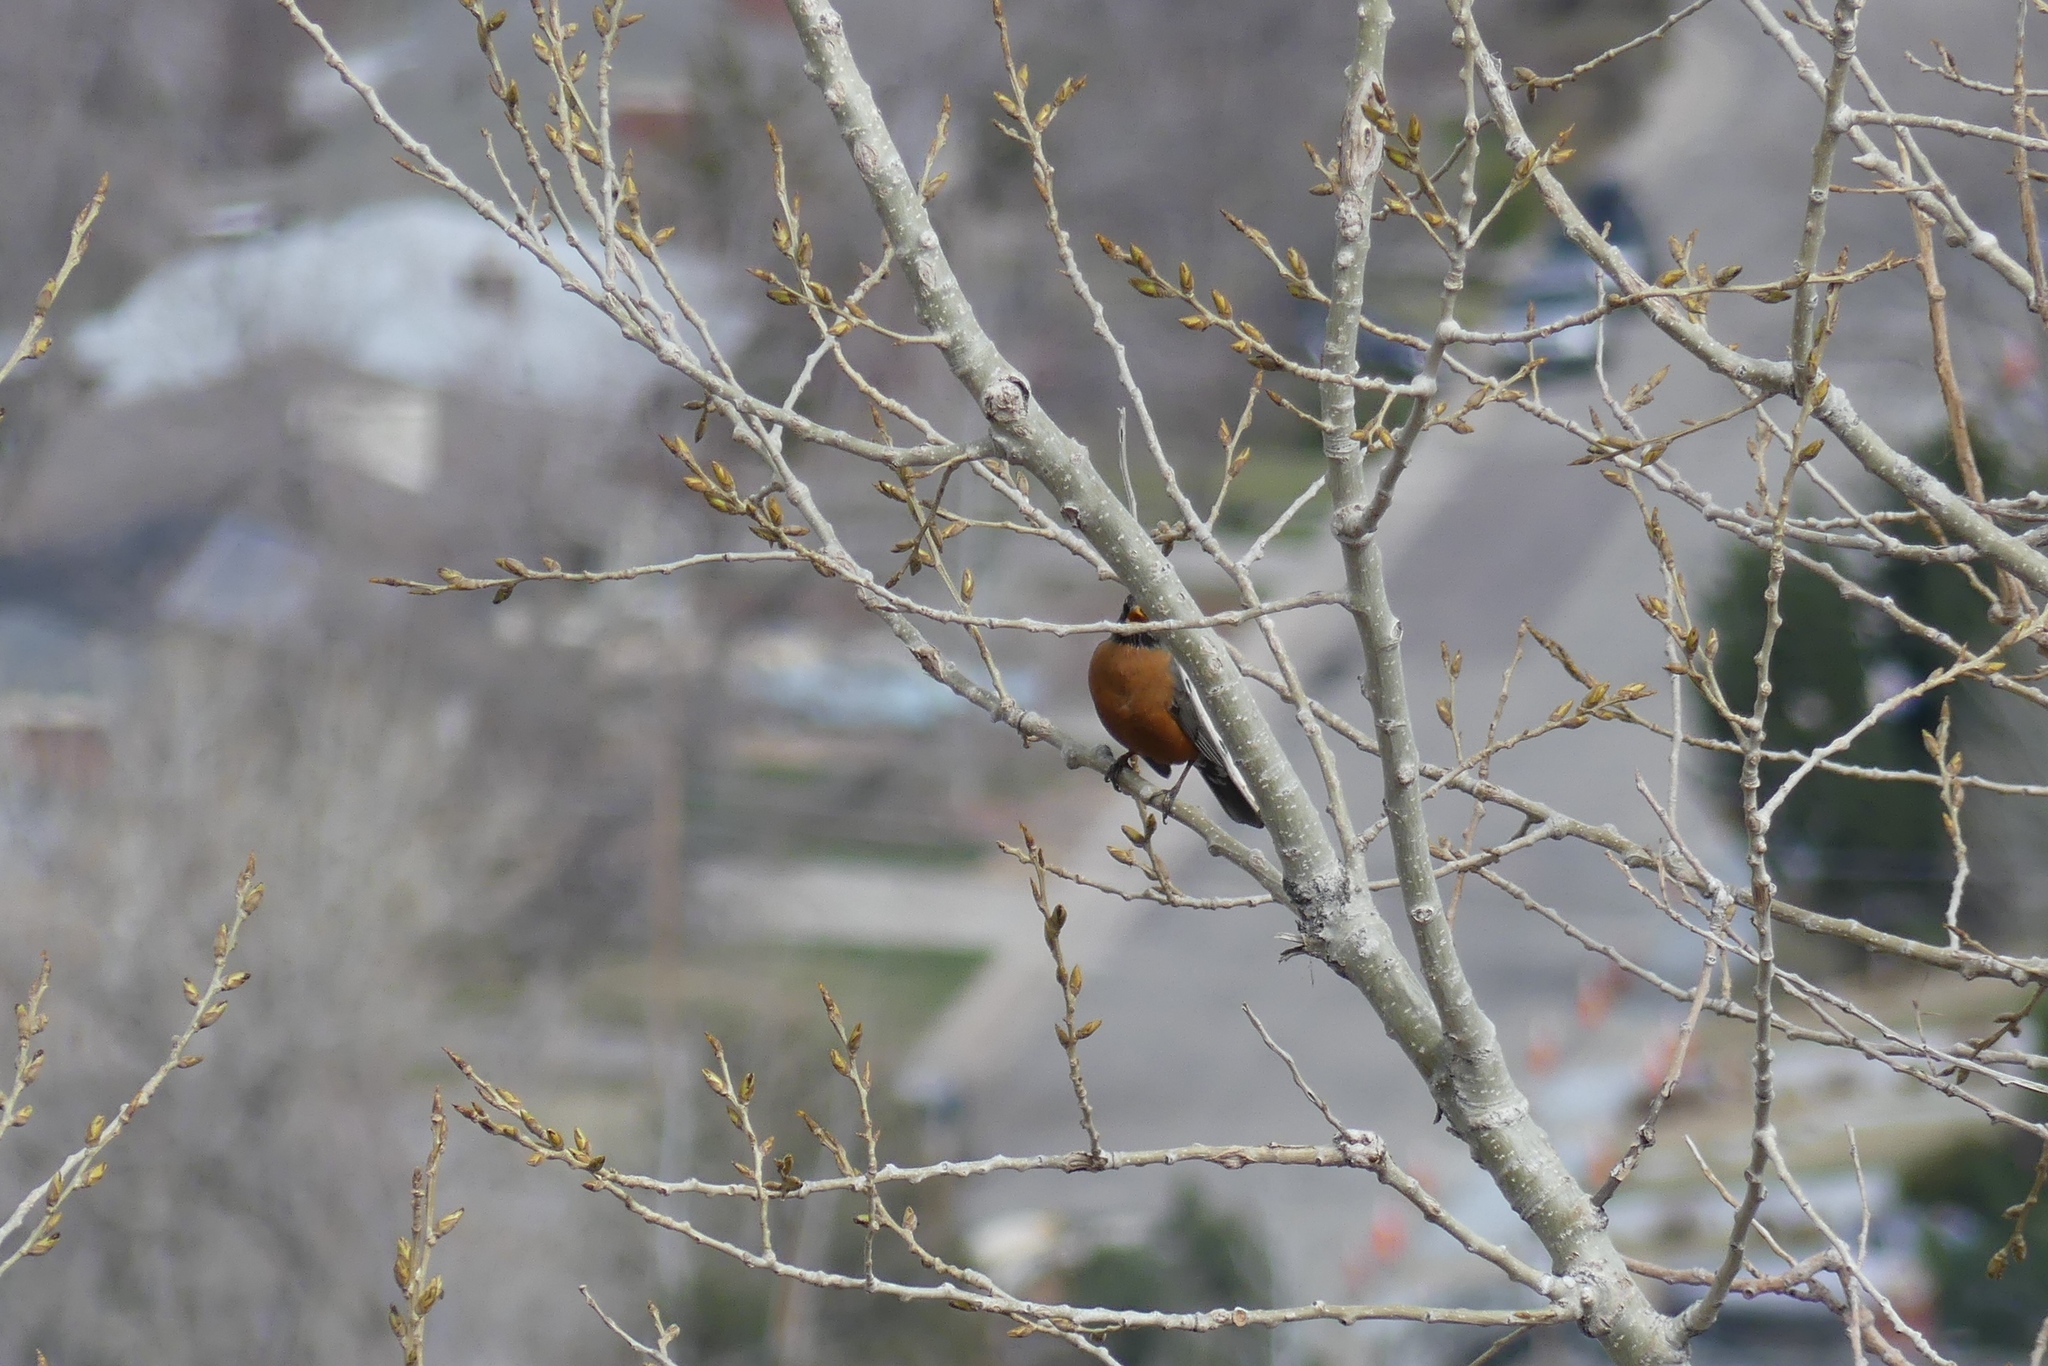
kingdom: Animalia
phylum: Chordata
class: Aves
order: Passeriformes
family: Turdidae
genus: Turdus
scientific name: Turdus migratorius
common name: American robin
